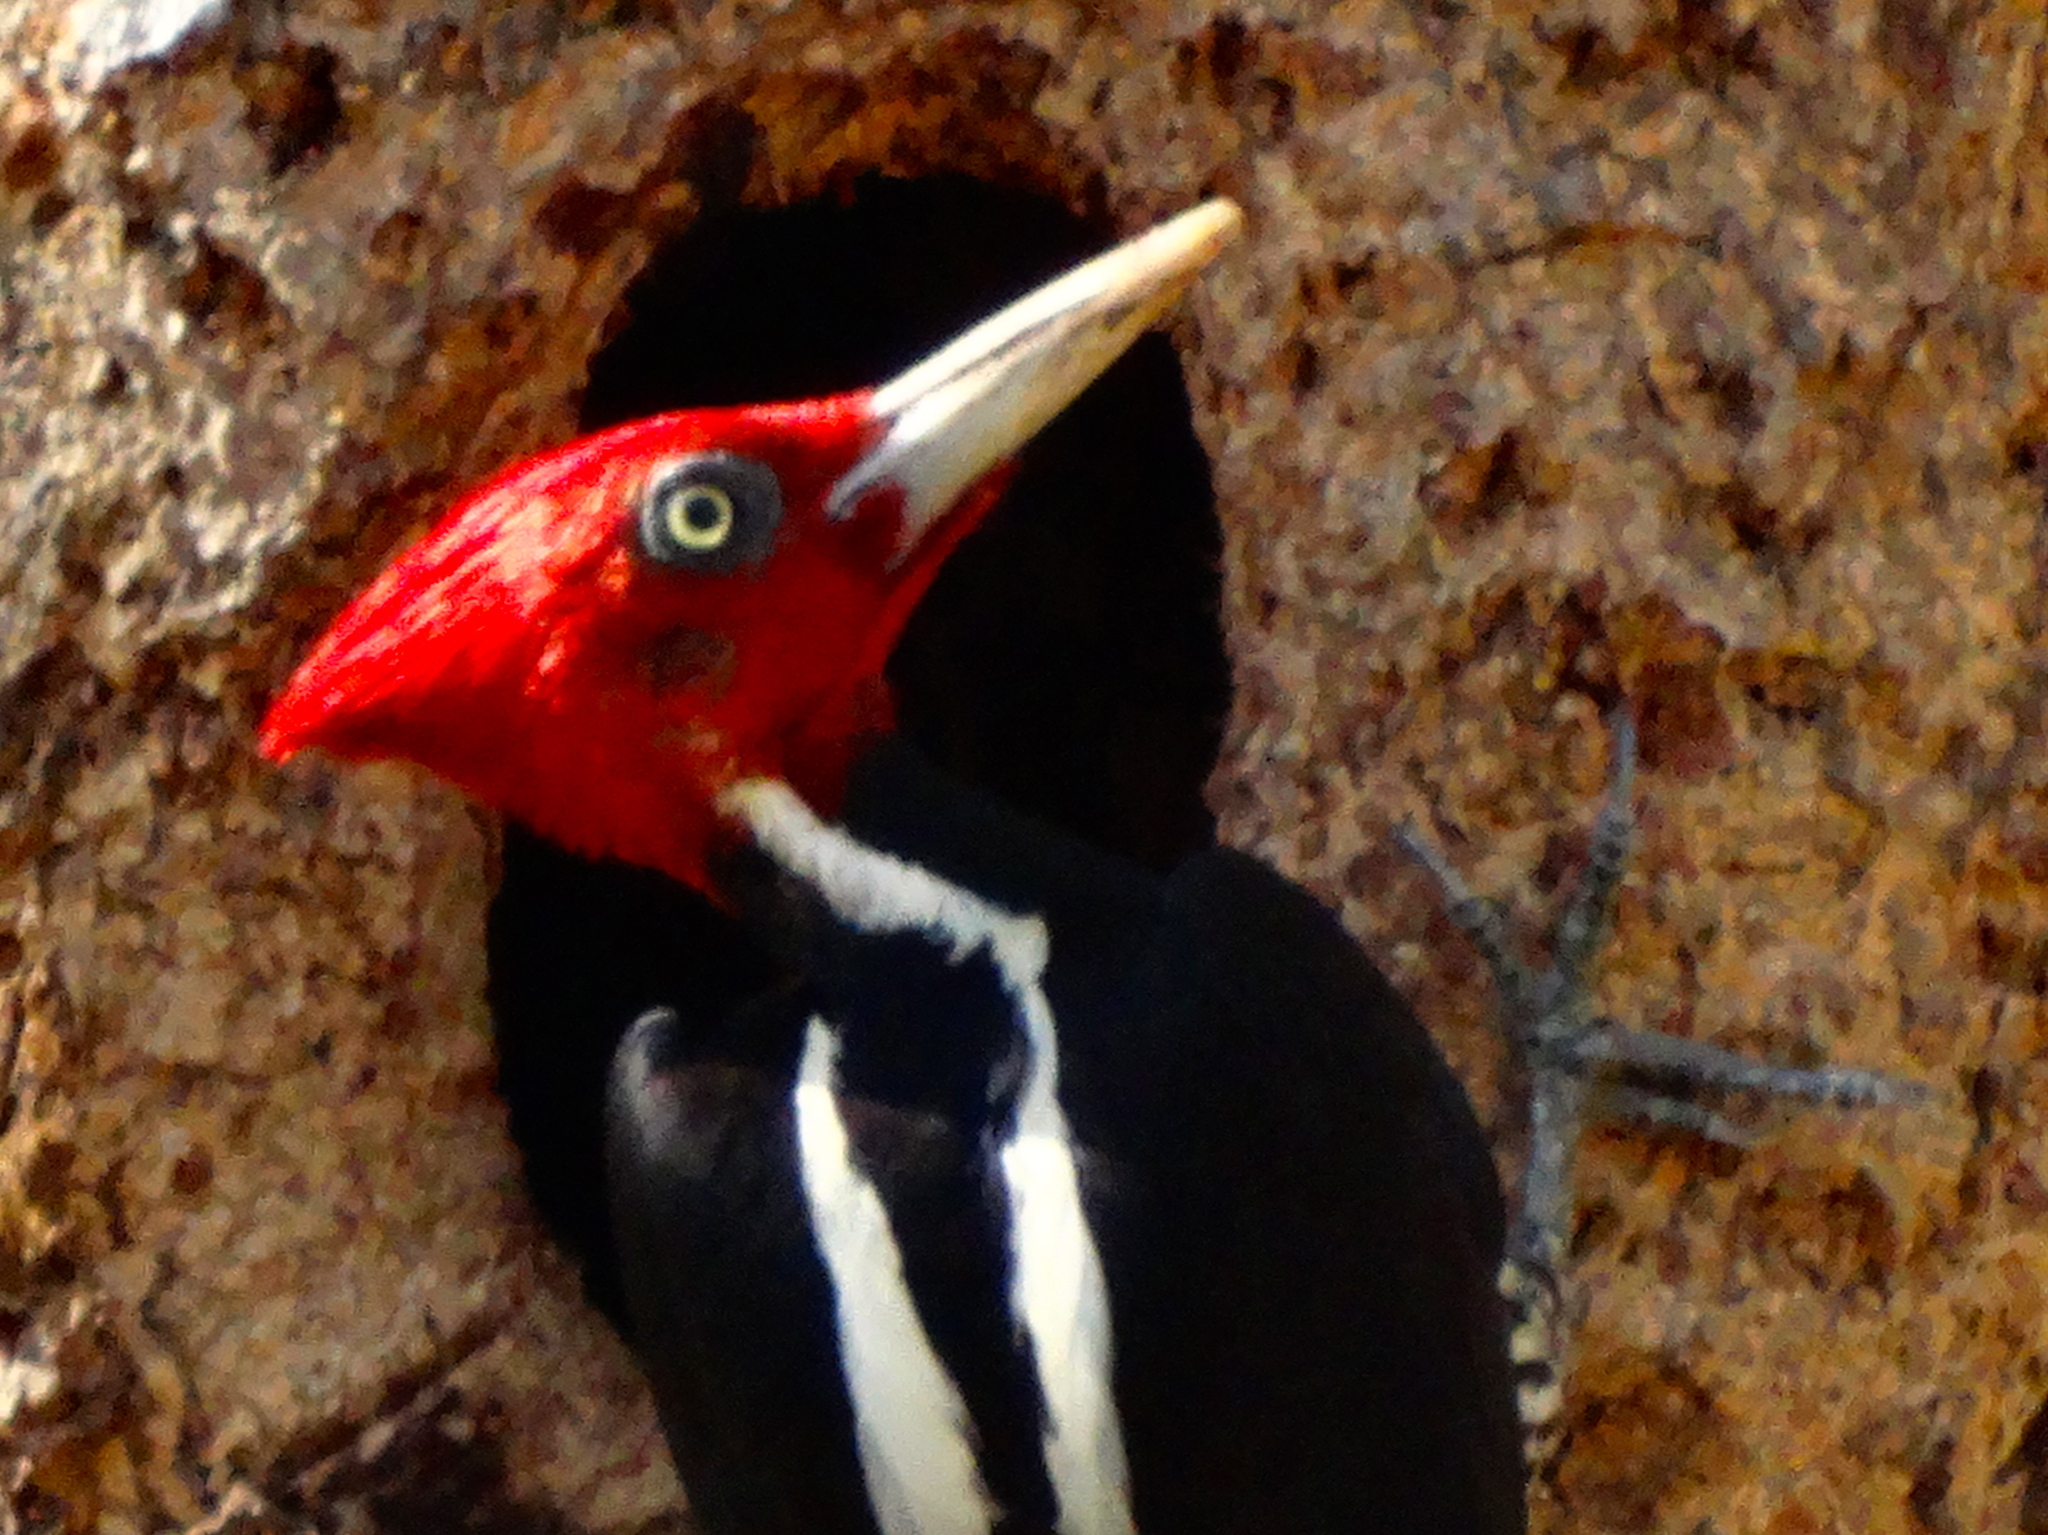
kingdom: Animalia
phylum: Chordata
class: Aves
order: Piciformes
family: Picidae
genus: Campephilus
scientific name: Campephilus guatemalensis
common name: Pale-billed woodpecker
